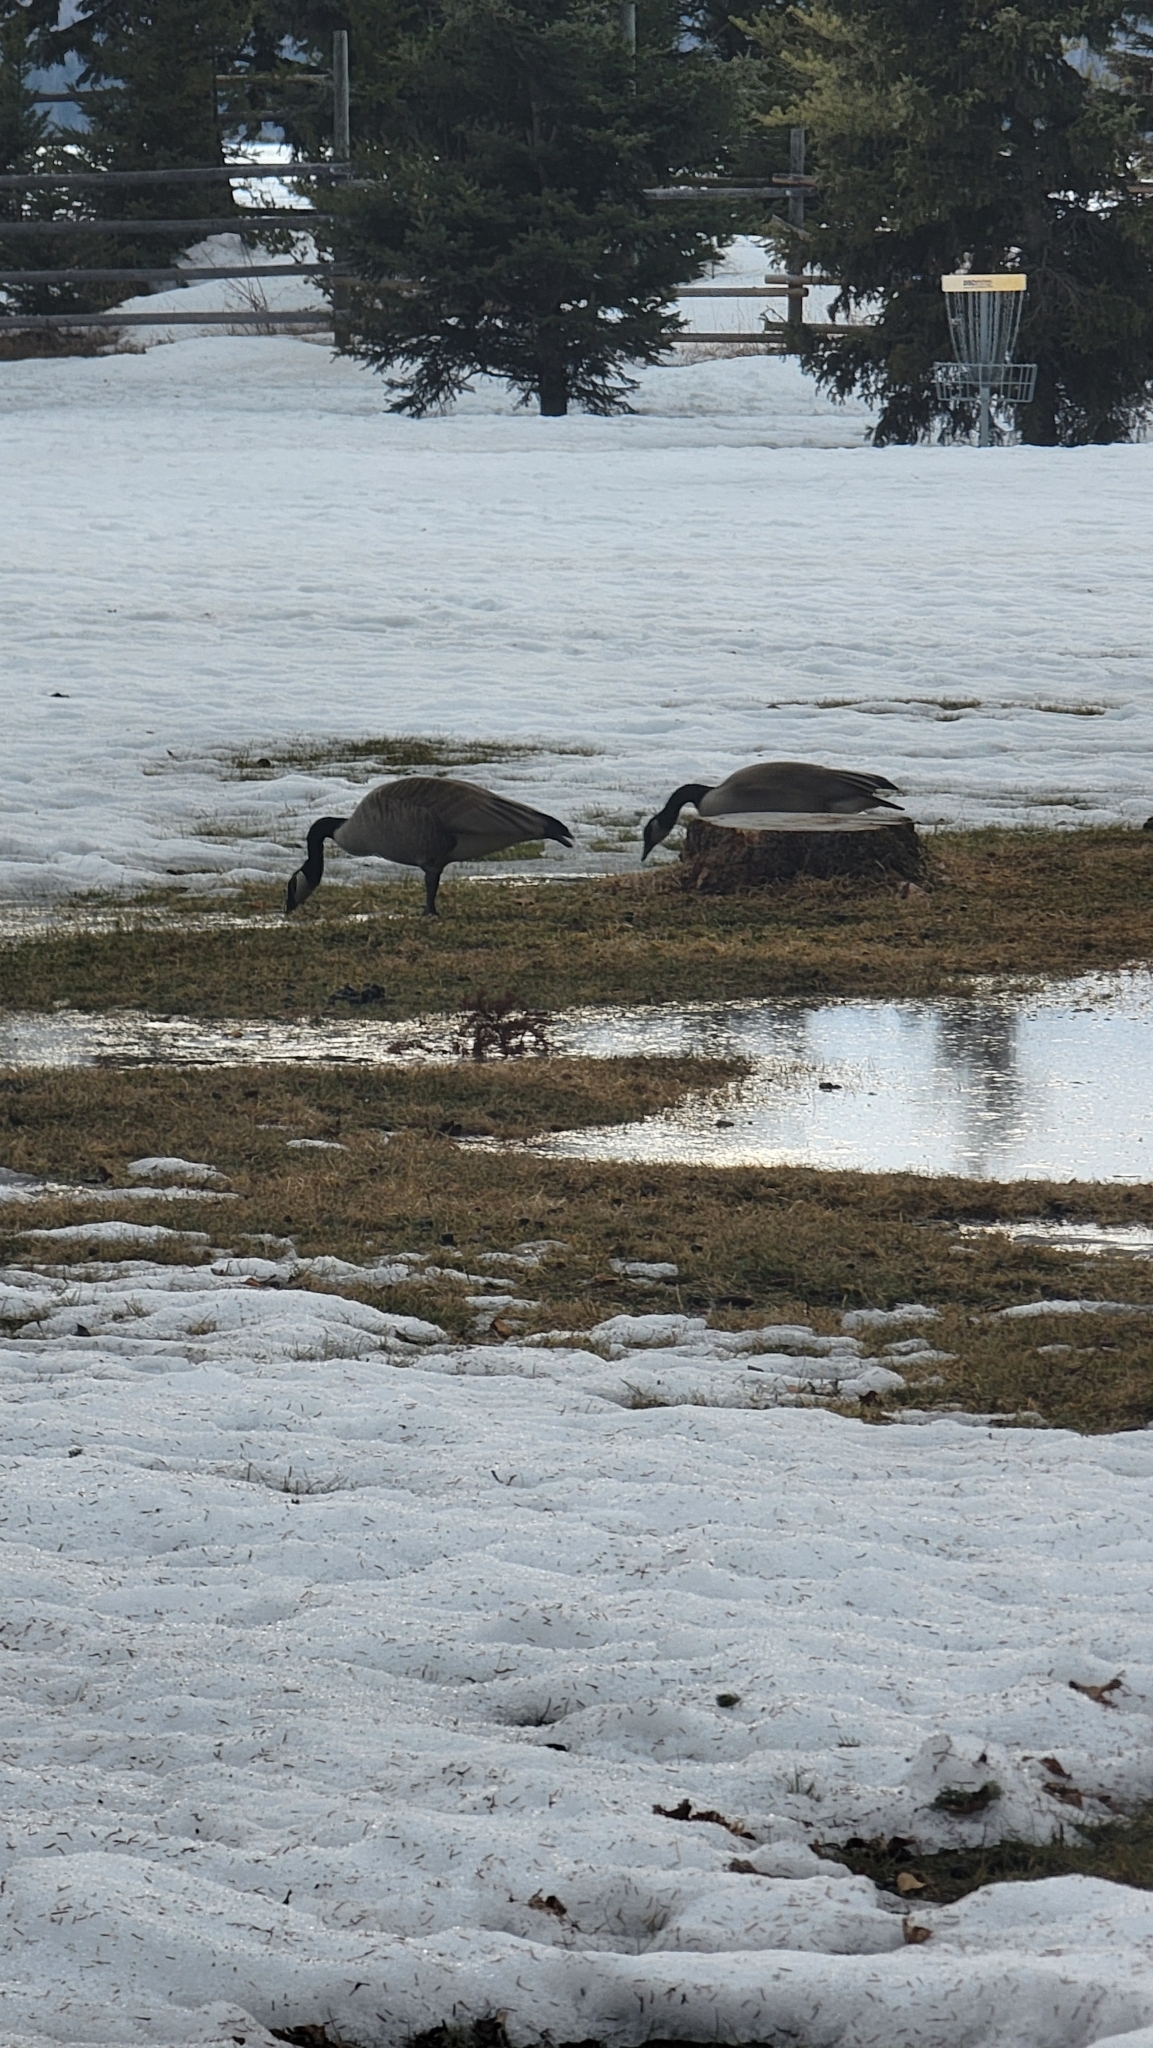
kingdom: Animalia
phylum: Chordata
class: Aves
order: Anseriformes
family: Anatidae
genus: Branta
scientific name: Branta canadensis
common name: Canada goose
